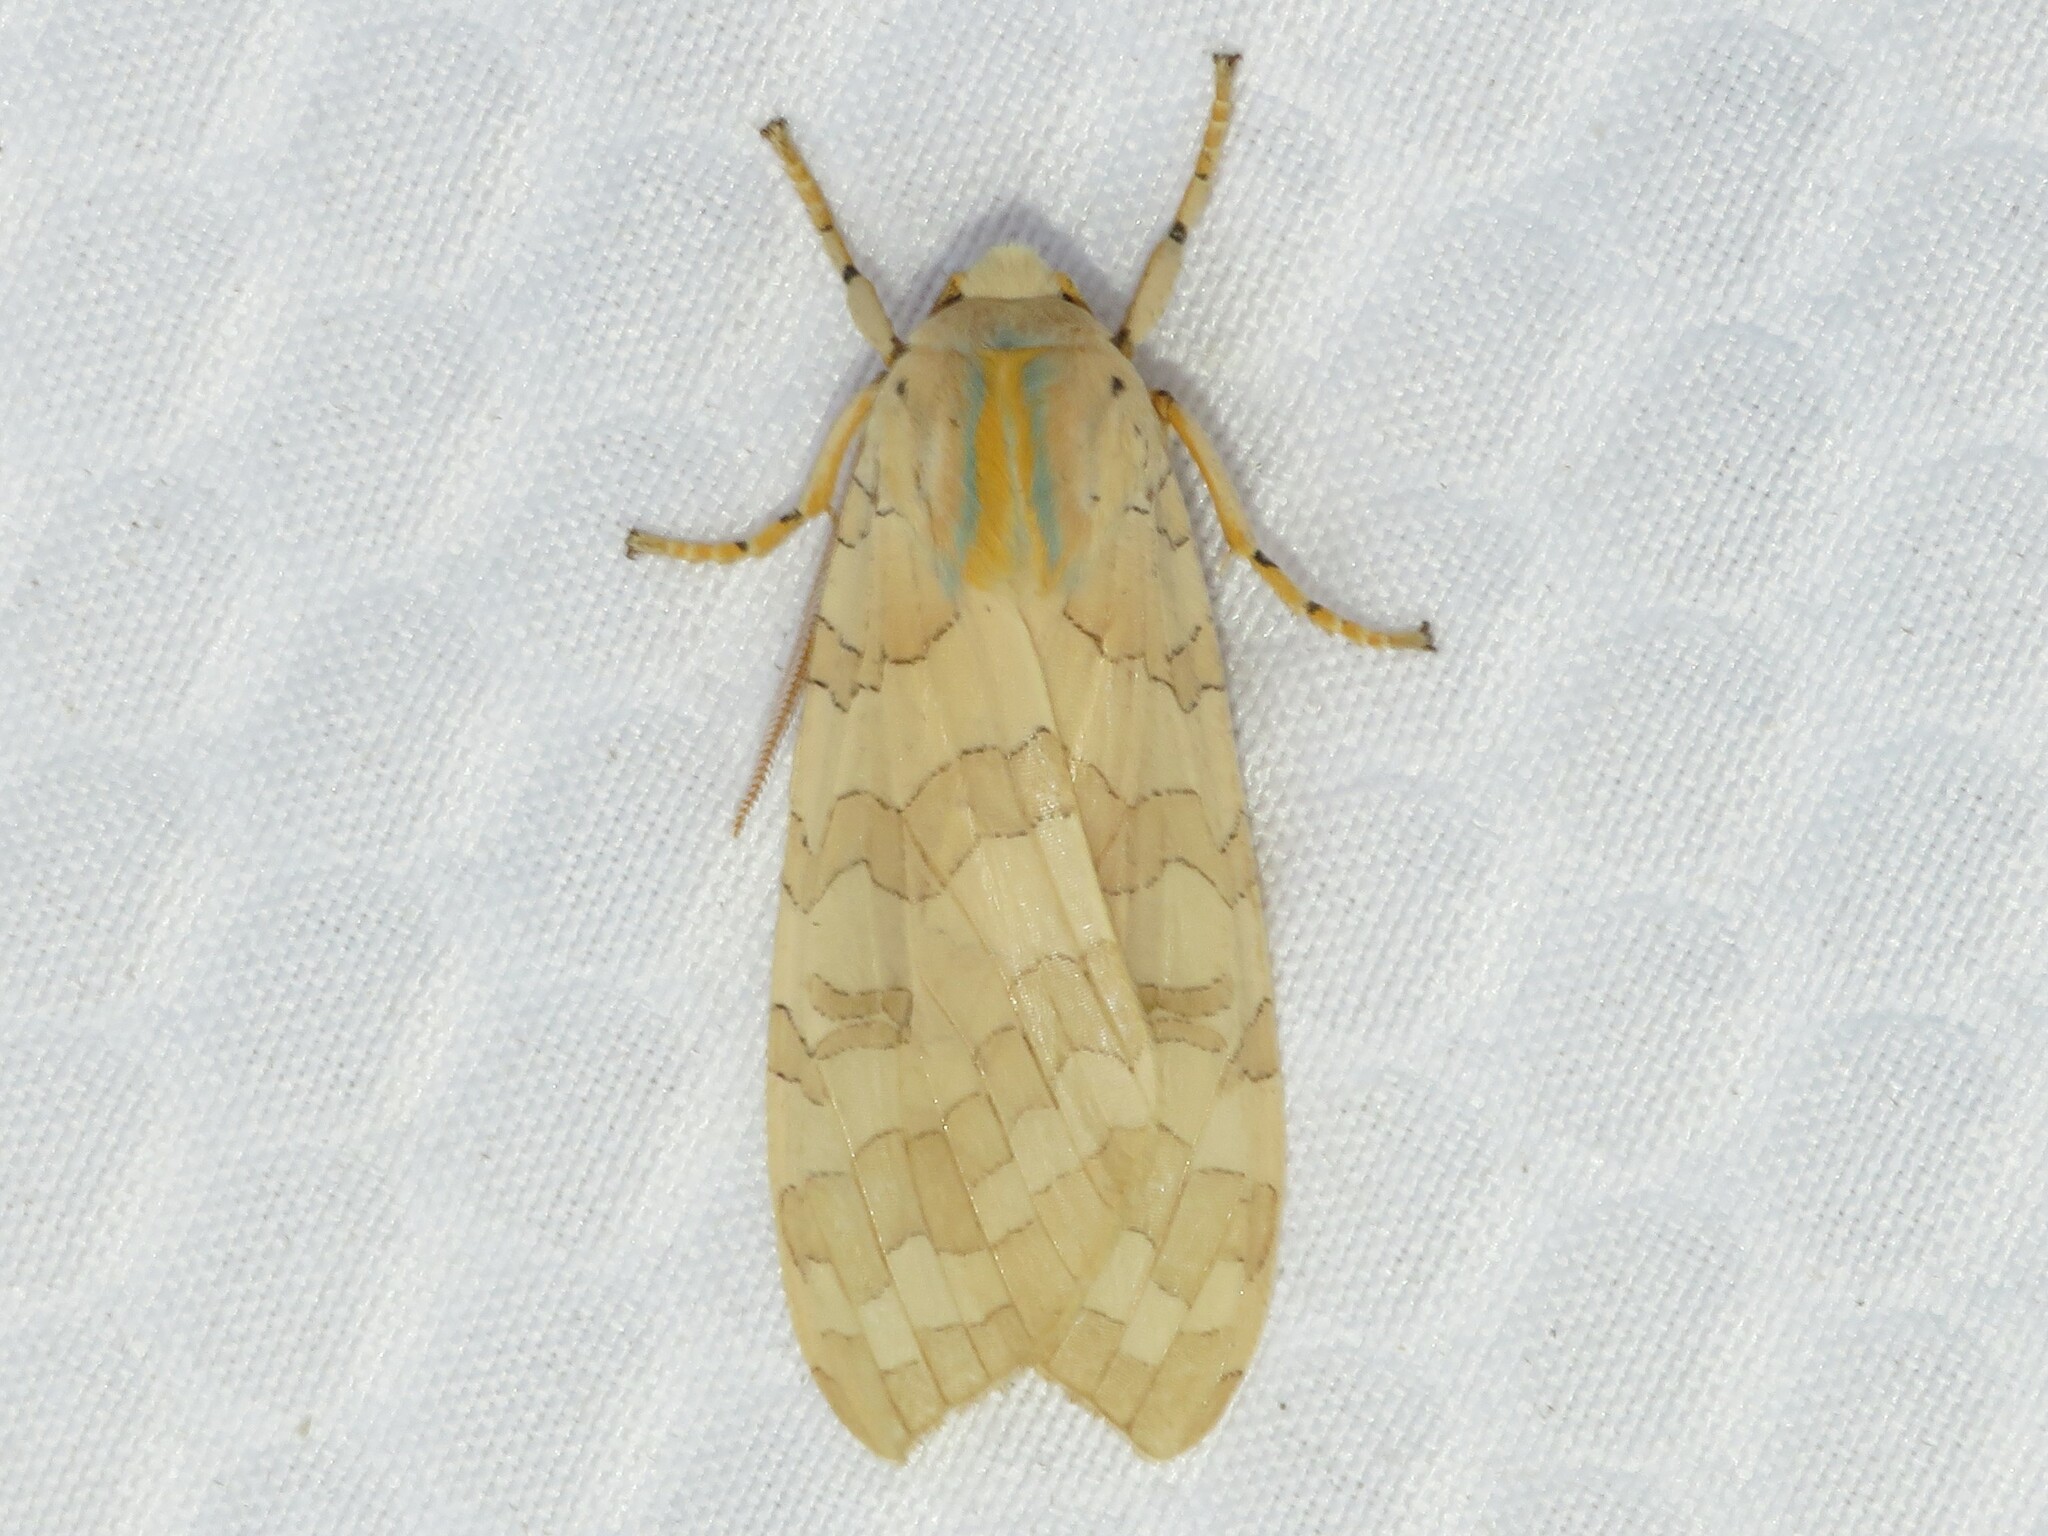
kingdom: Animalia
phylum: Arthropoda
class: Insecta
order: Lepidoptera
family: Erebidae
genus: Halysidota
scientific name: Halysidota
